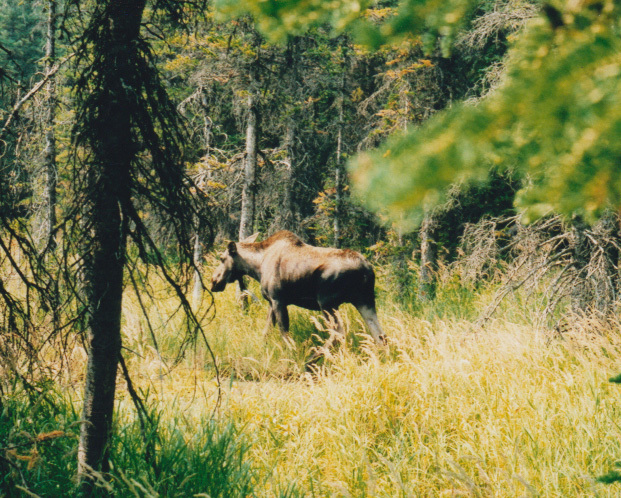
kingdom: Animalia
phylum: Chordata
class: Mammalia
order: Artiodactyla
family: Cervidae
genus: Alces
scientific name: Alces alces
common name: Moose
